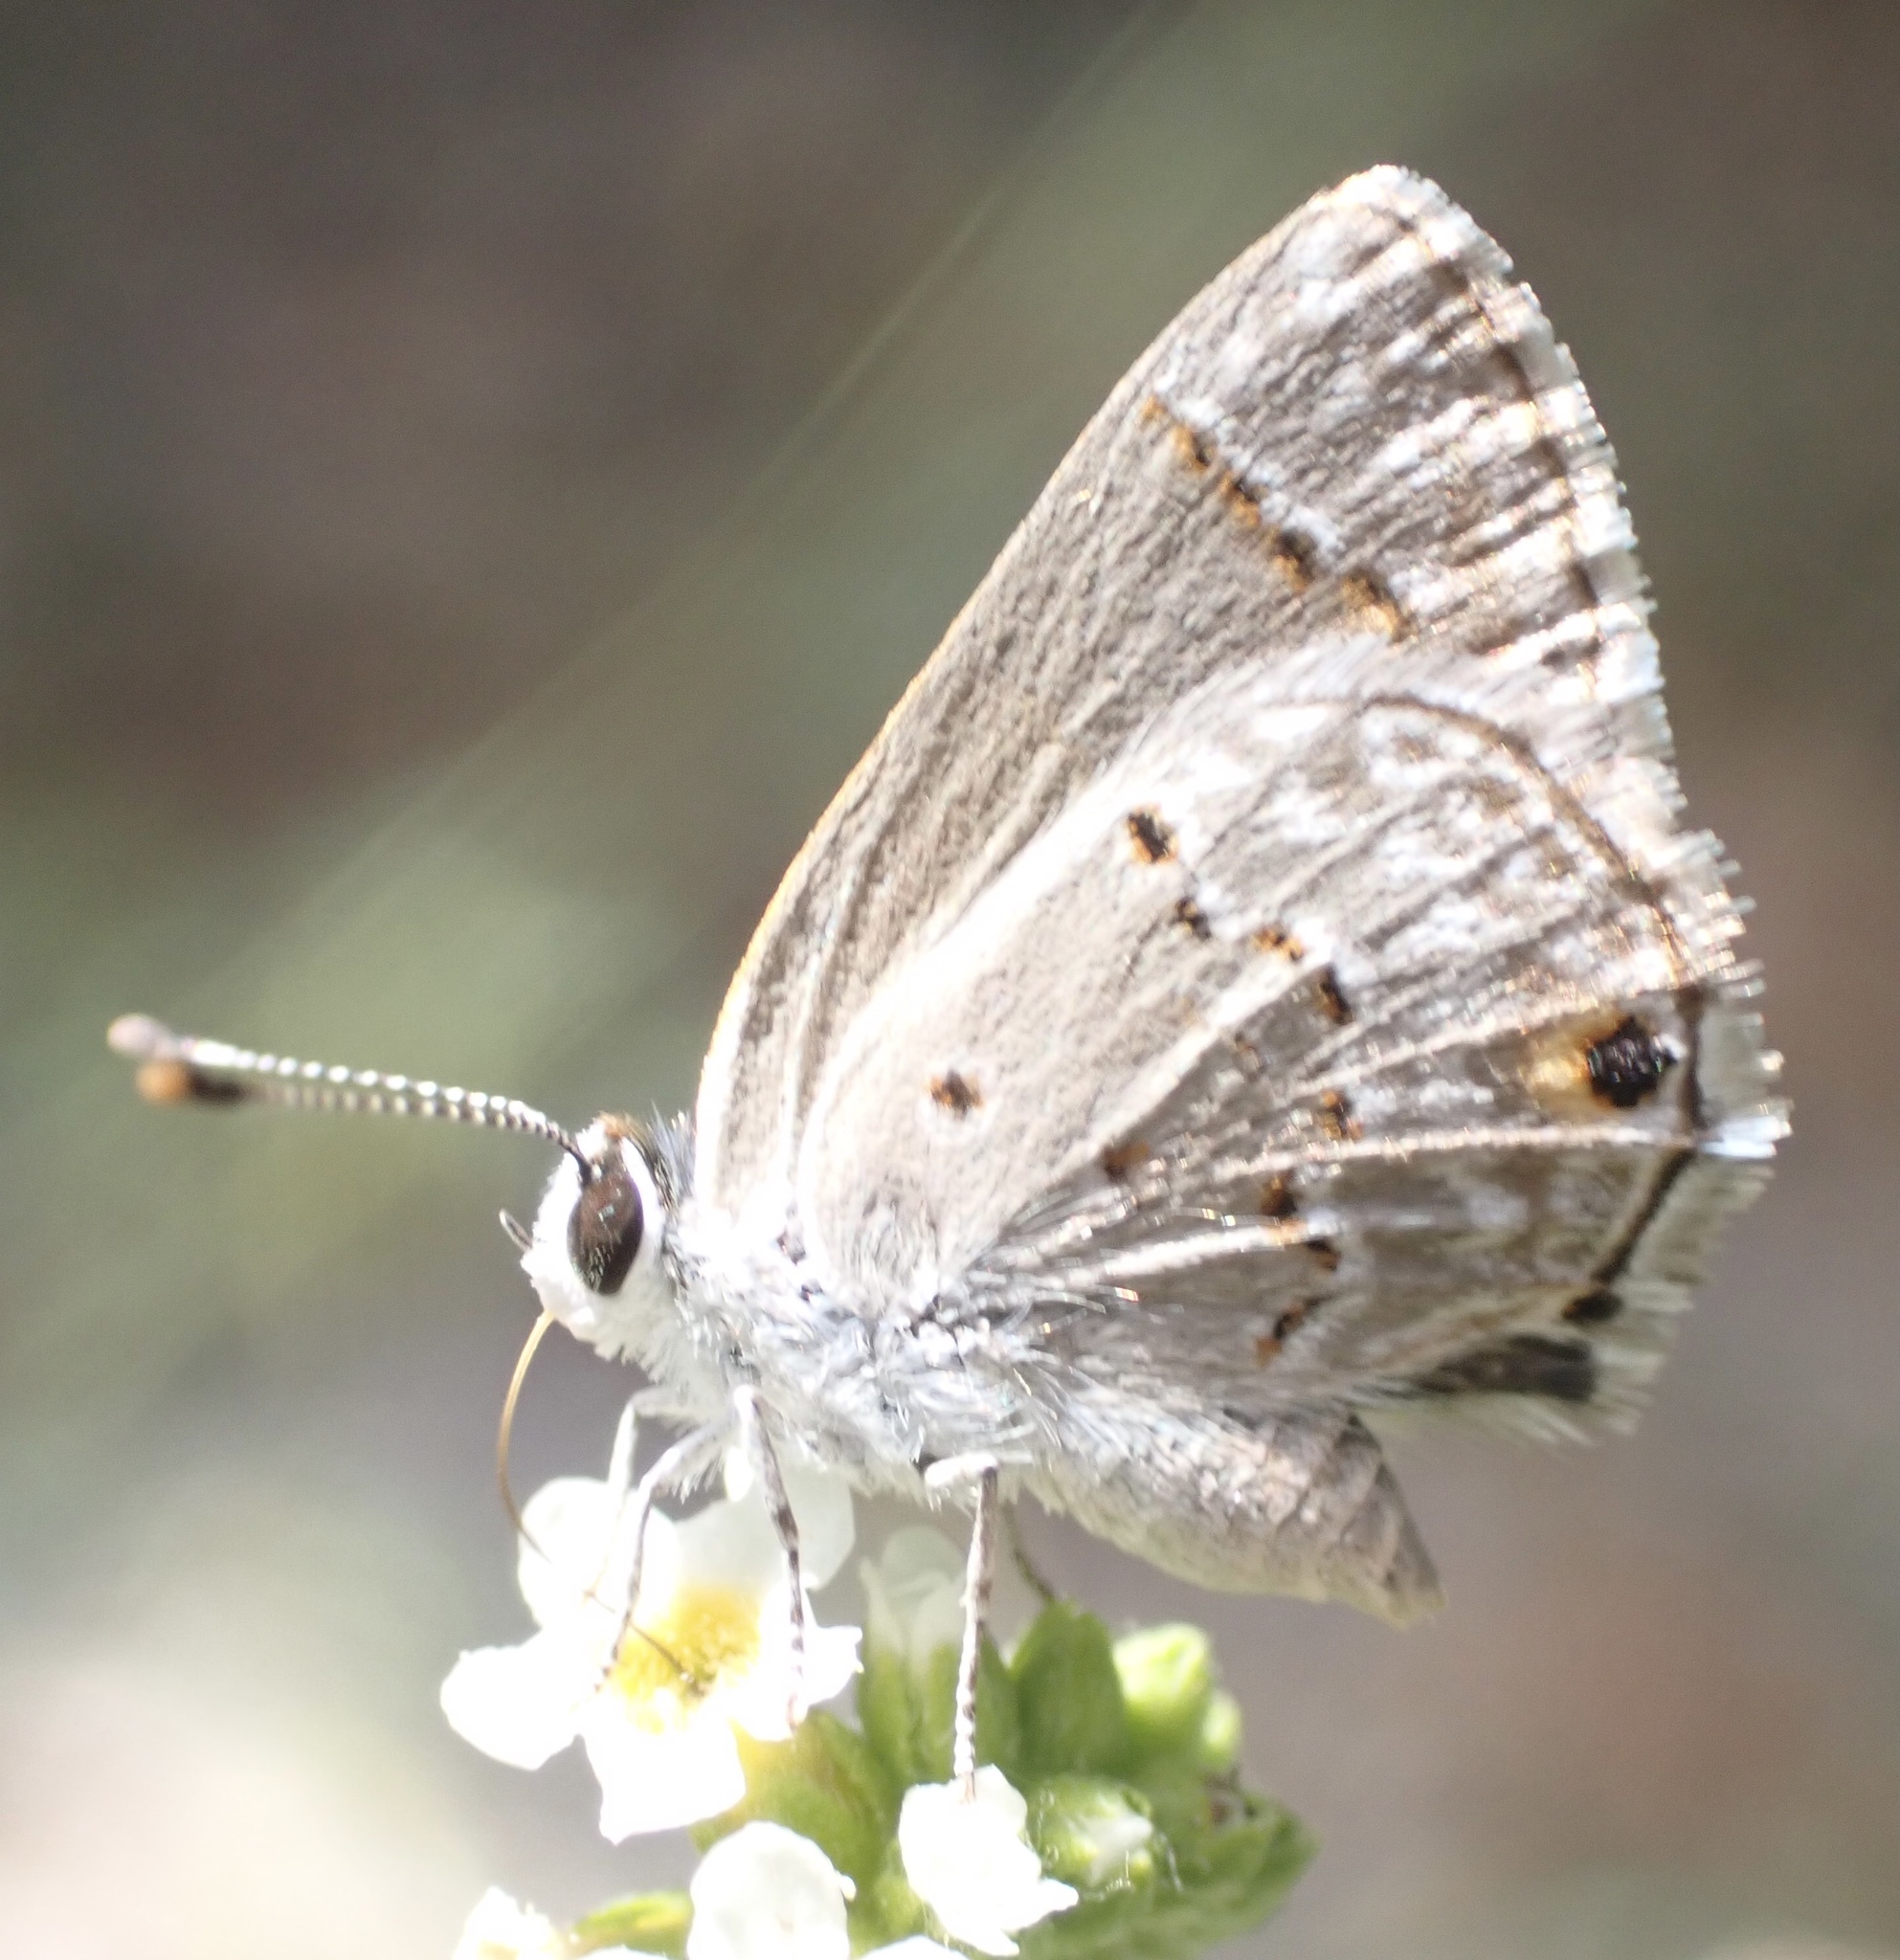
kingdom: Animalia
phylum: Arthropoda
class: Insecta
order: Lepidoptera
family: Lycaenidae
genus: Hemiargus
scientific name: Hemiargus hanno
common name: Common blue
